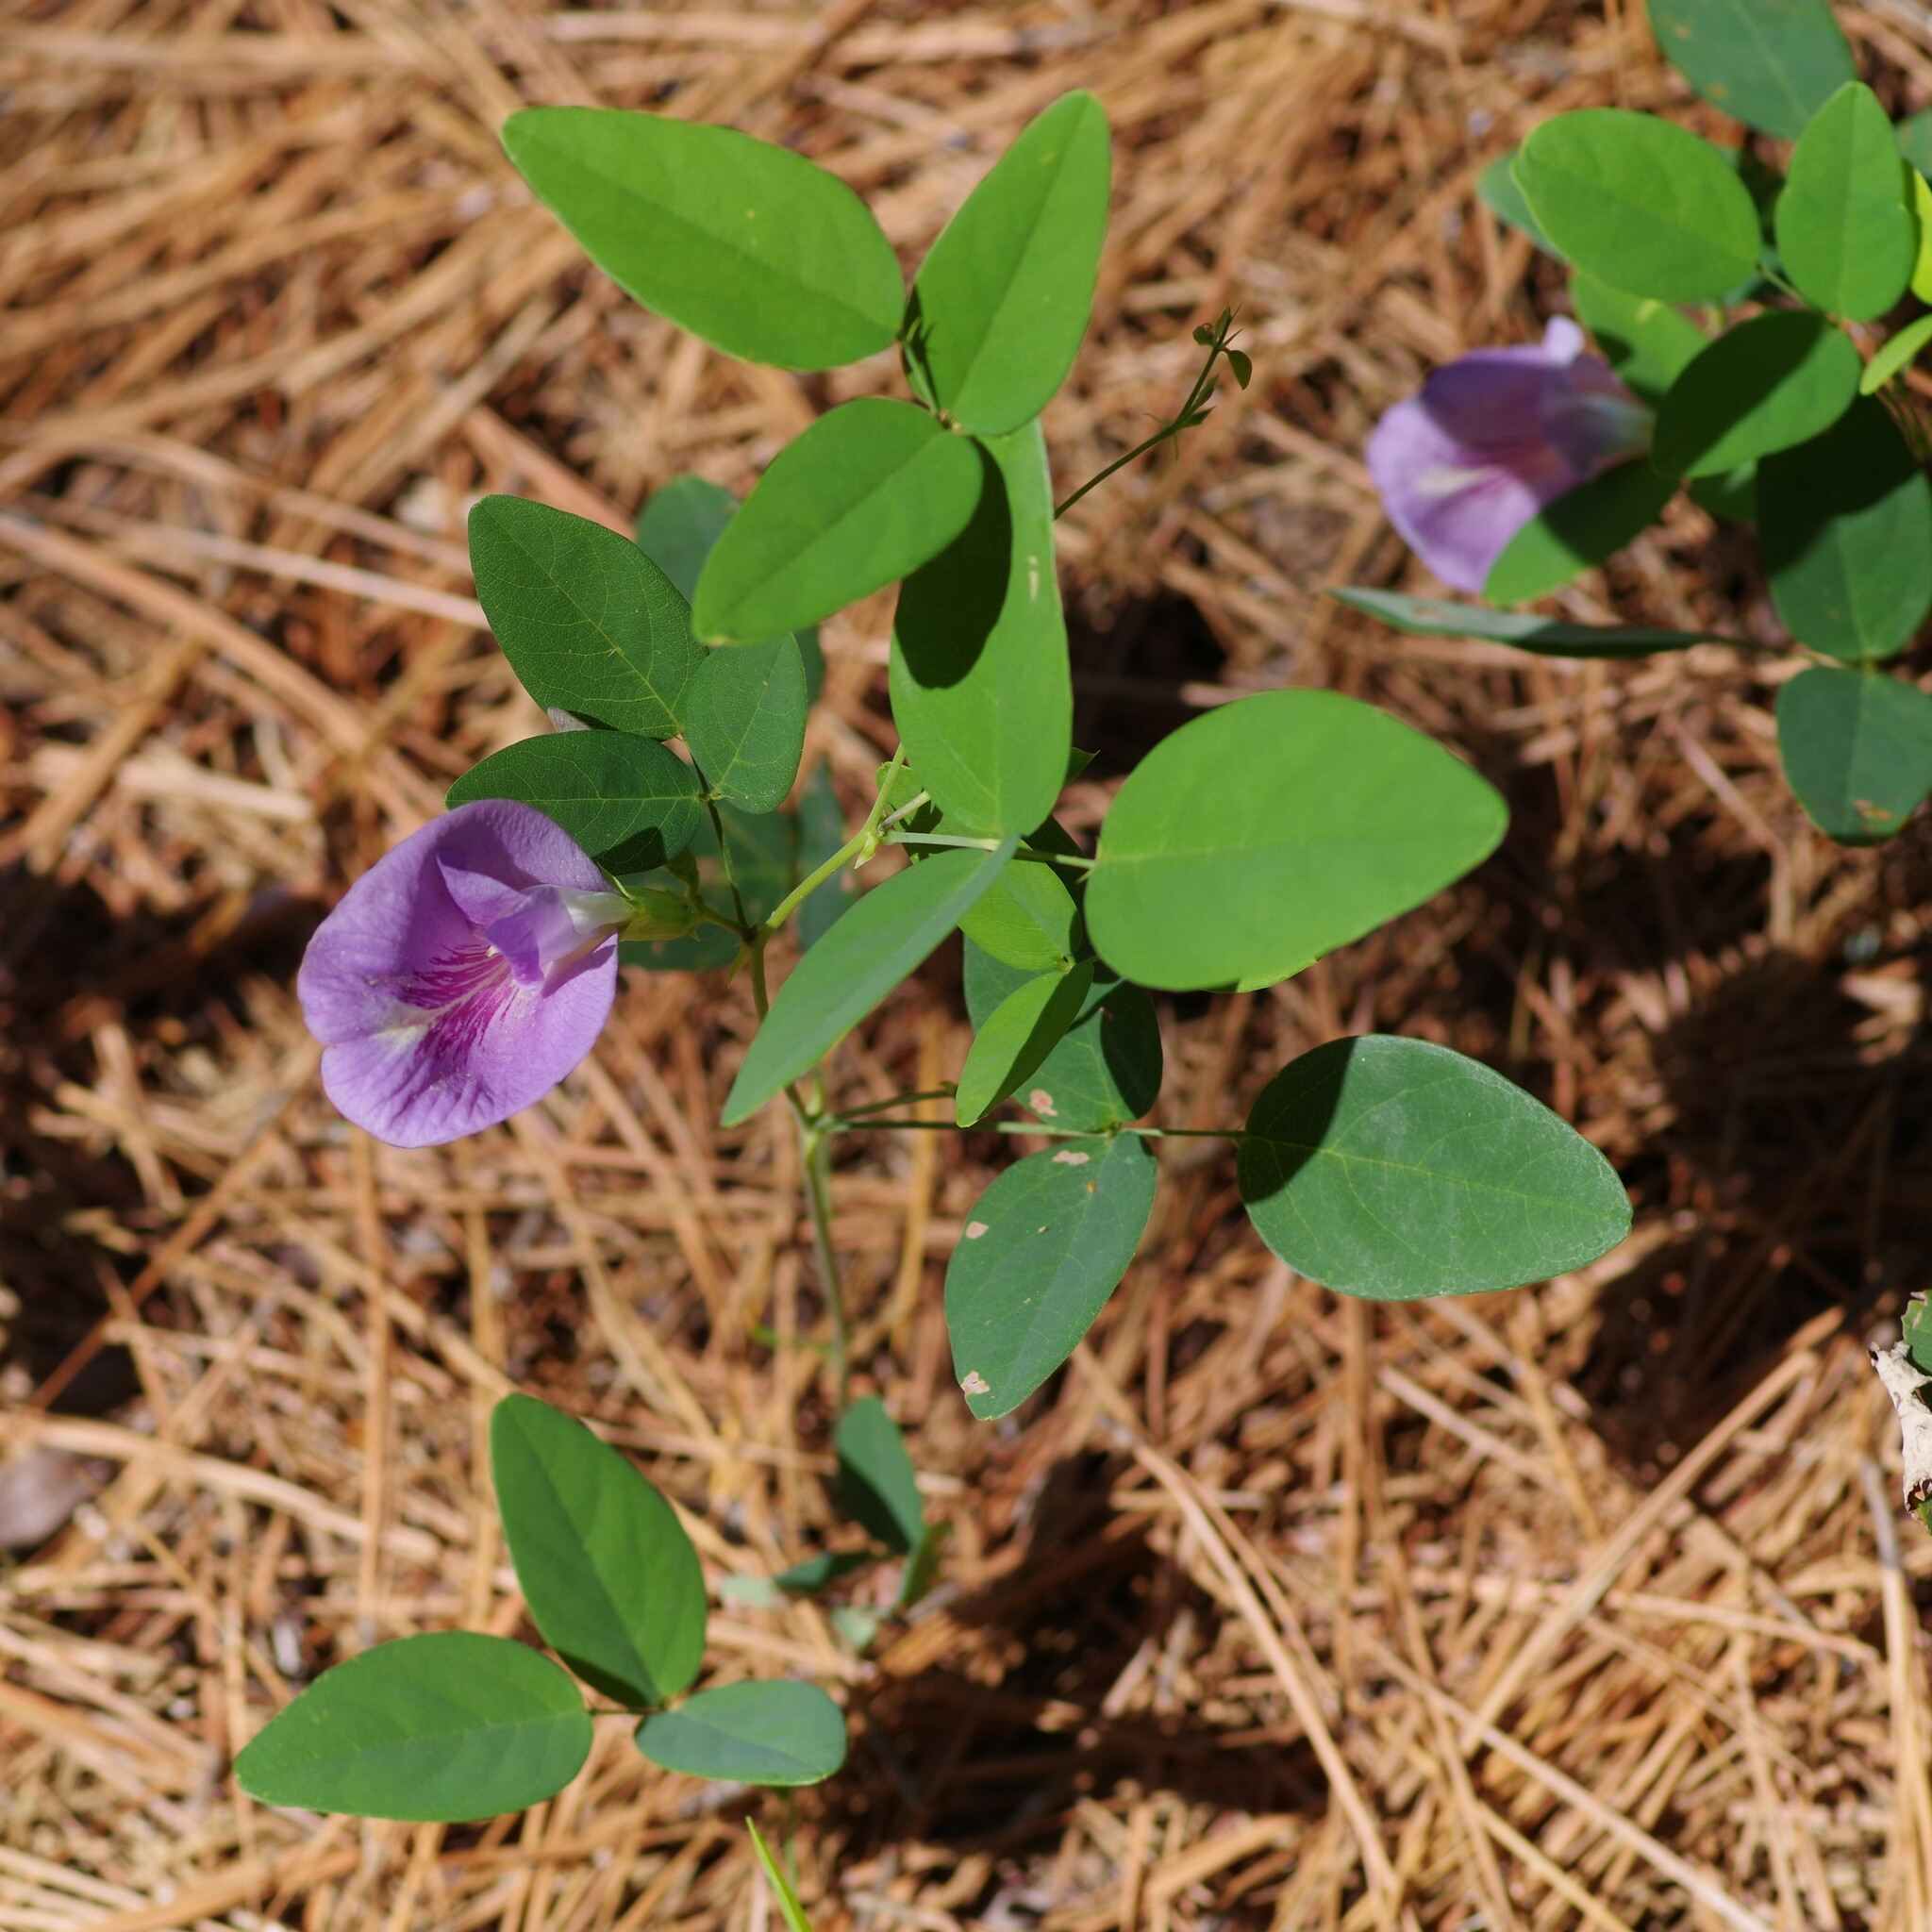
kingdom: Plantae
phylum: Tracheophyta
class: Magnoliopsida
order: Fabales
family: Fabaceae
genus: Clitoria
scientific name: Clitoria mariana
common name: Butterfly-pea
